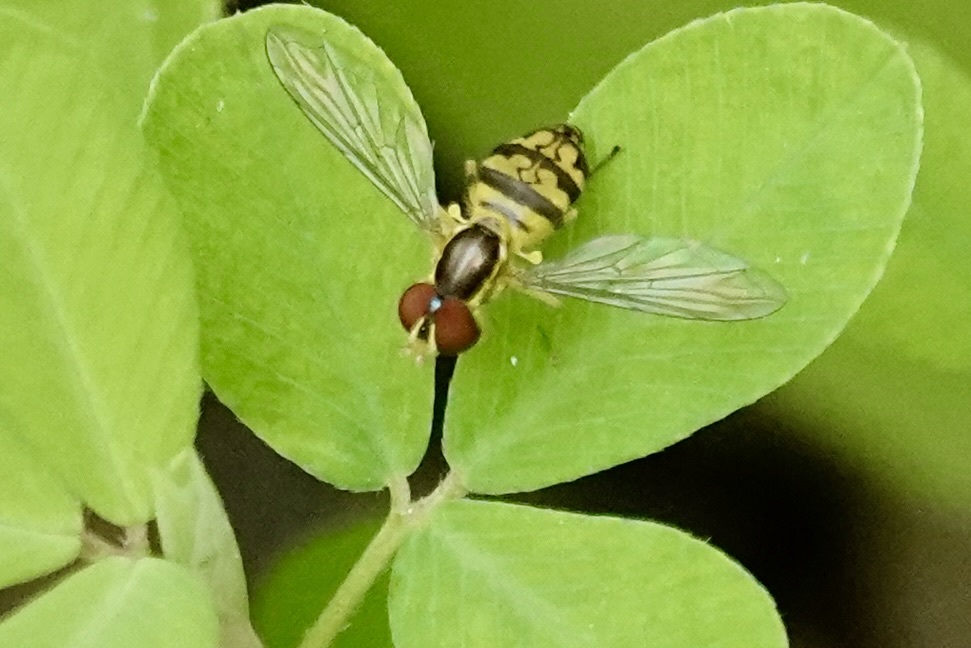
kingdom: Animalia
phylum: Arthropoda
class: Insecta
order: Diptera
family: Syrphidae
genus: Toxomerus
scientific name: Toxomerus geminatus
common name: Eastern calligrapher
